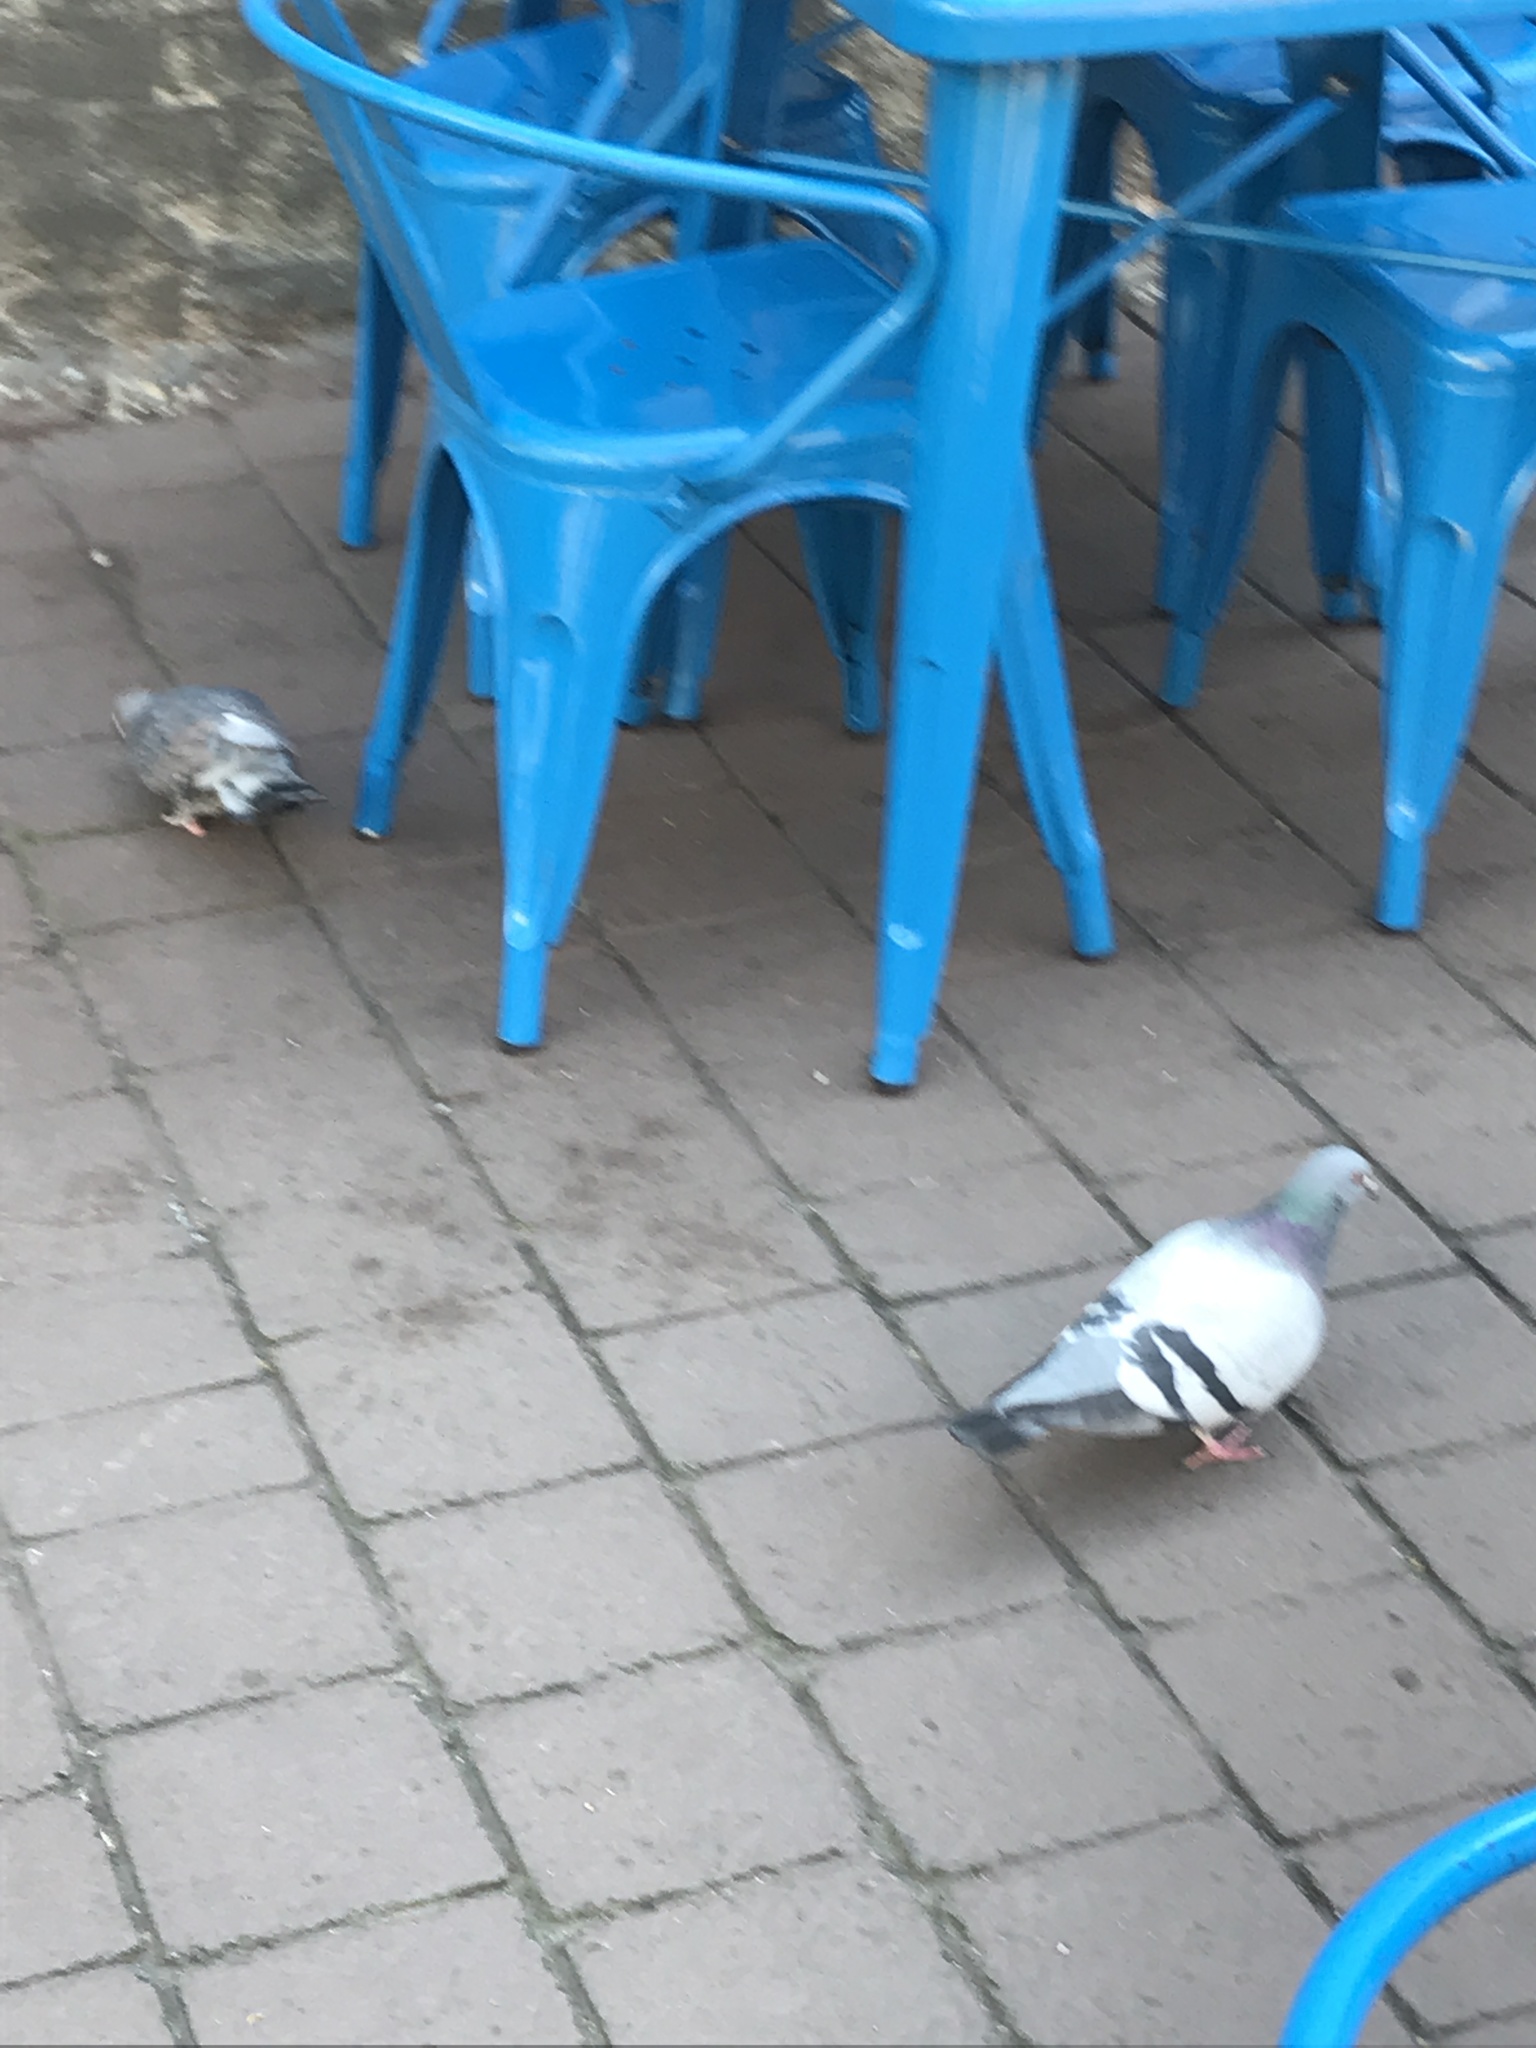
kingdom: Animalia
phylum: Chordata
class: Aves
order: Columbiformes
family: Columbidae
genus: Columba
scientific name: Columba livia
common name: Rock pigeon
